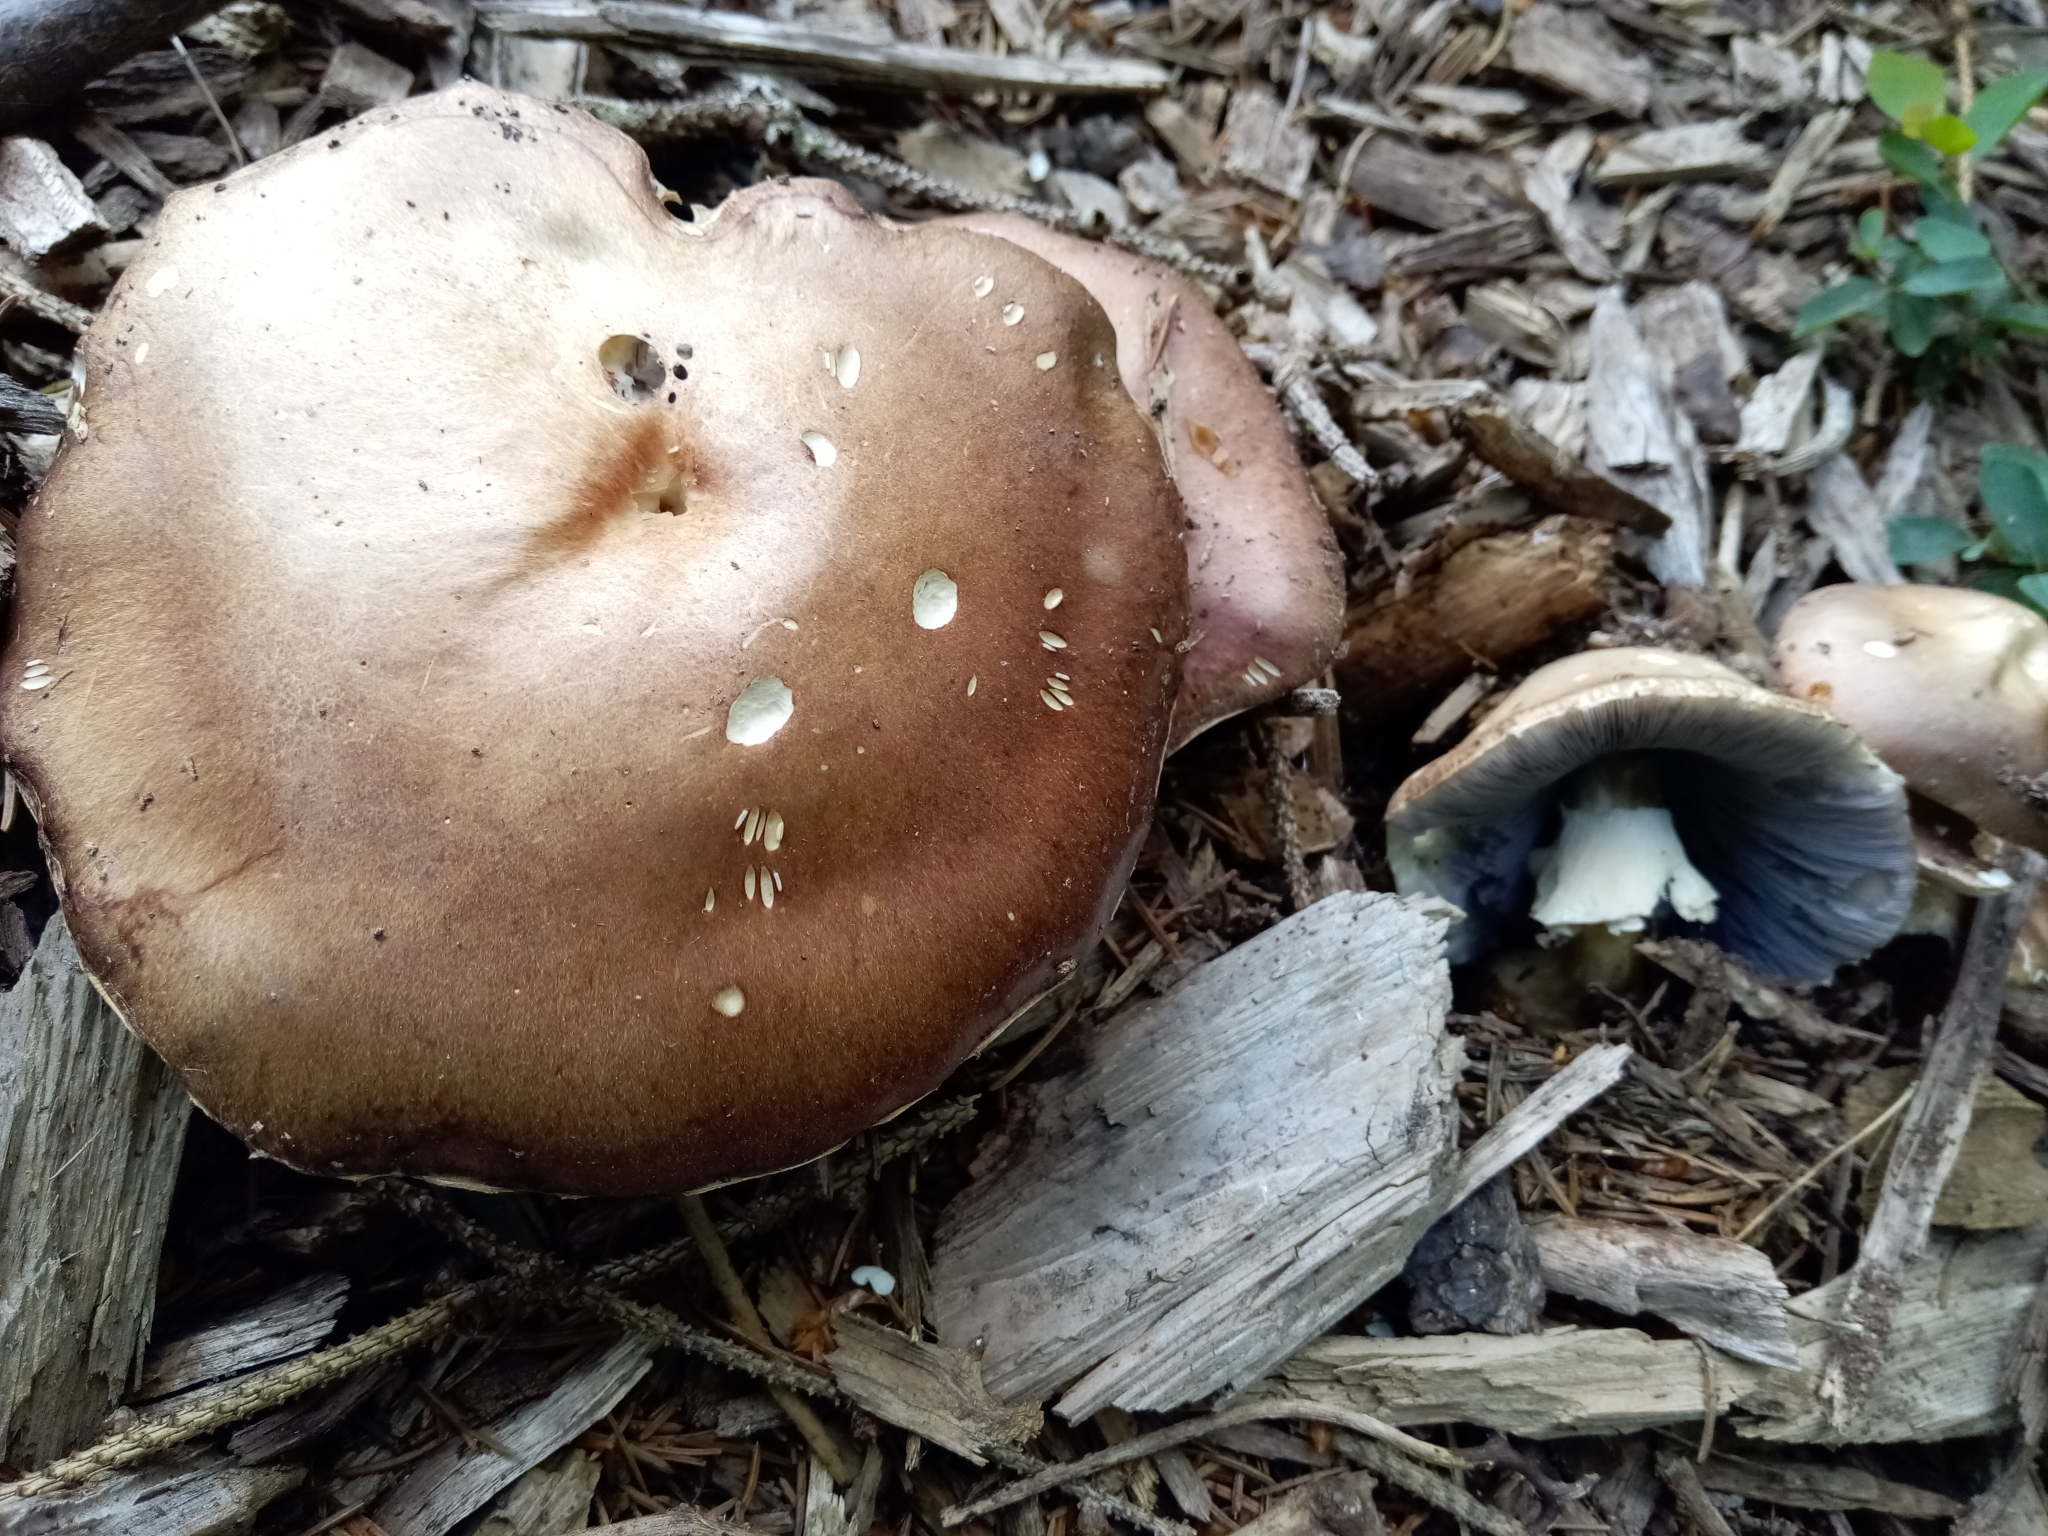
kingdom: Fungi
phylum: Basidiomycota
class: Agaricomycetes
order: Agaricales
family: Strophariaceae
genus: Stropharia
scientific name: Stropharia rugosoannulata
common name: Wine roundhead
